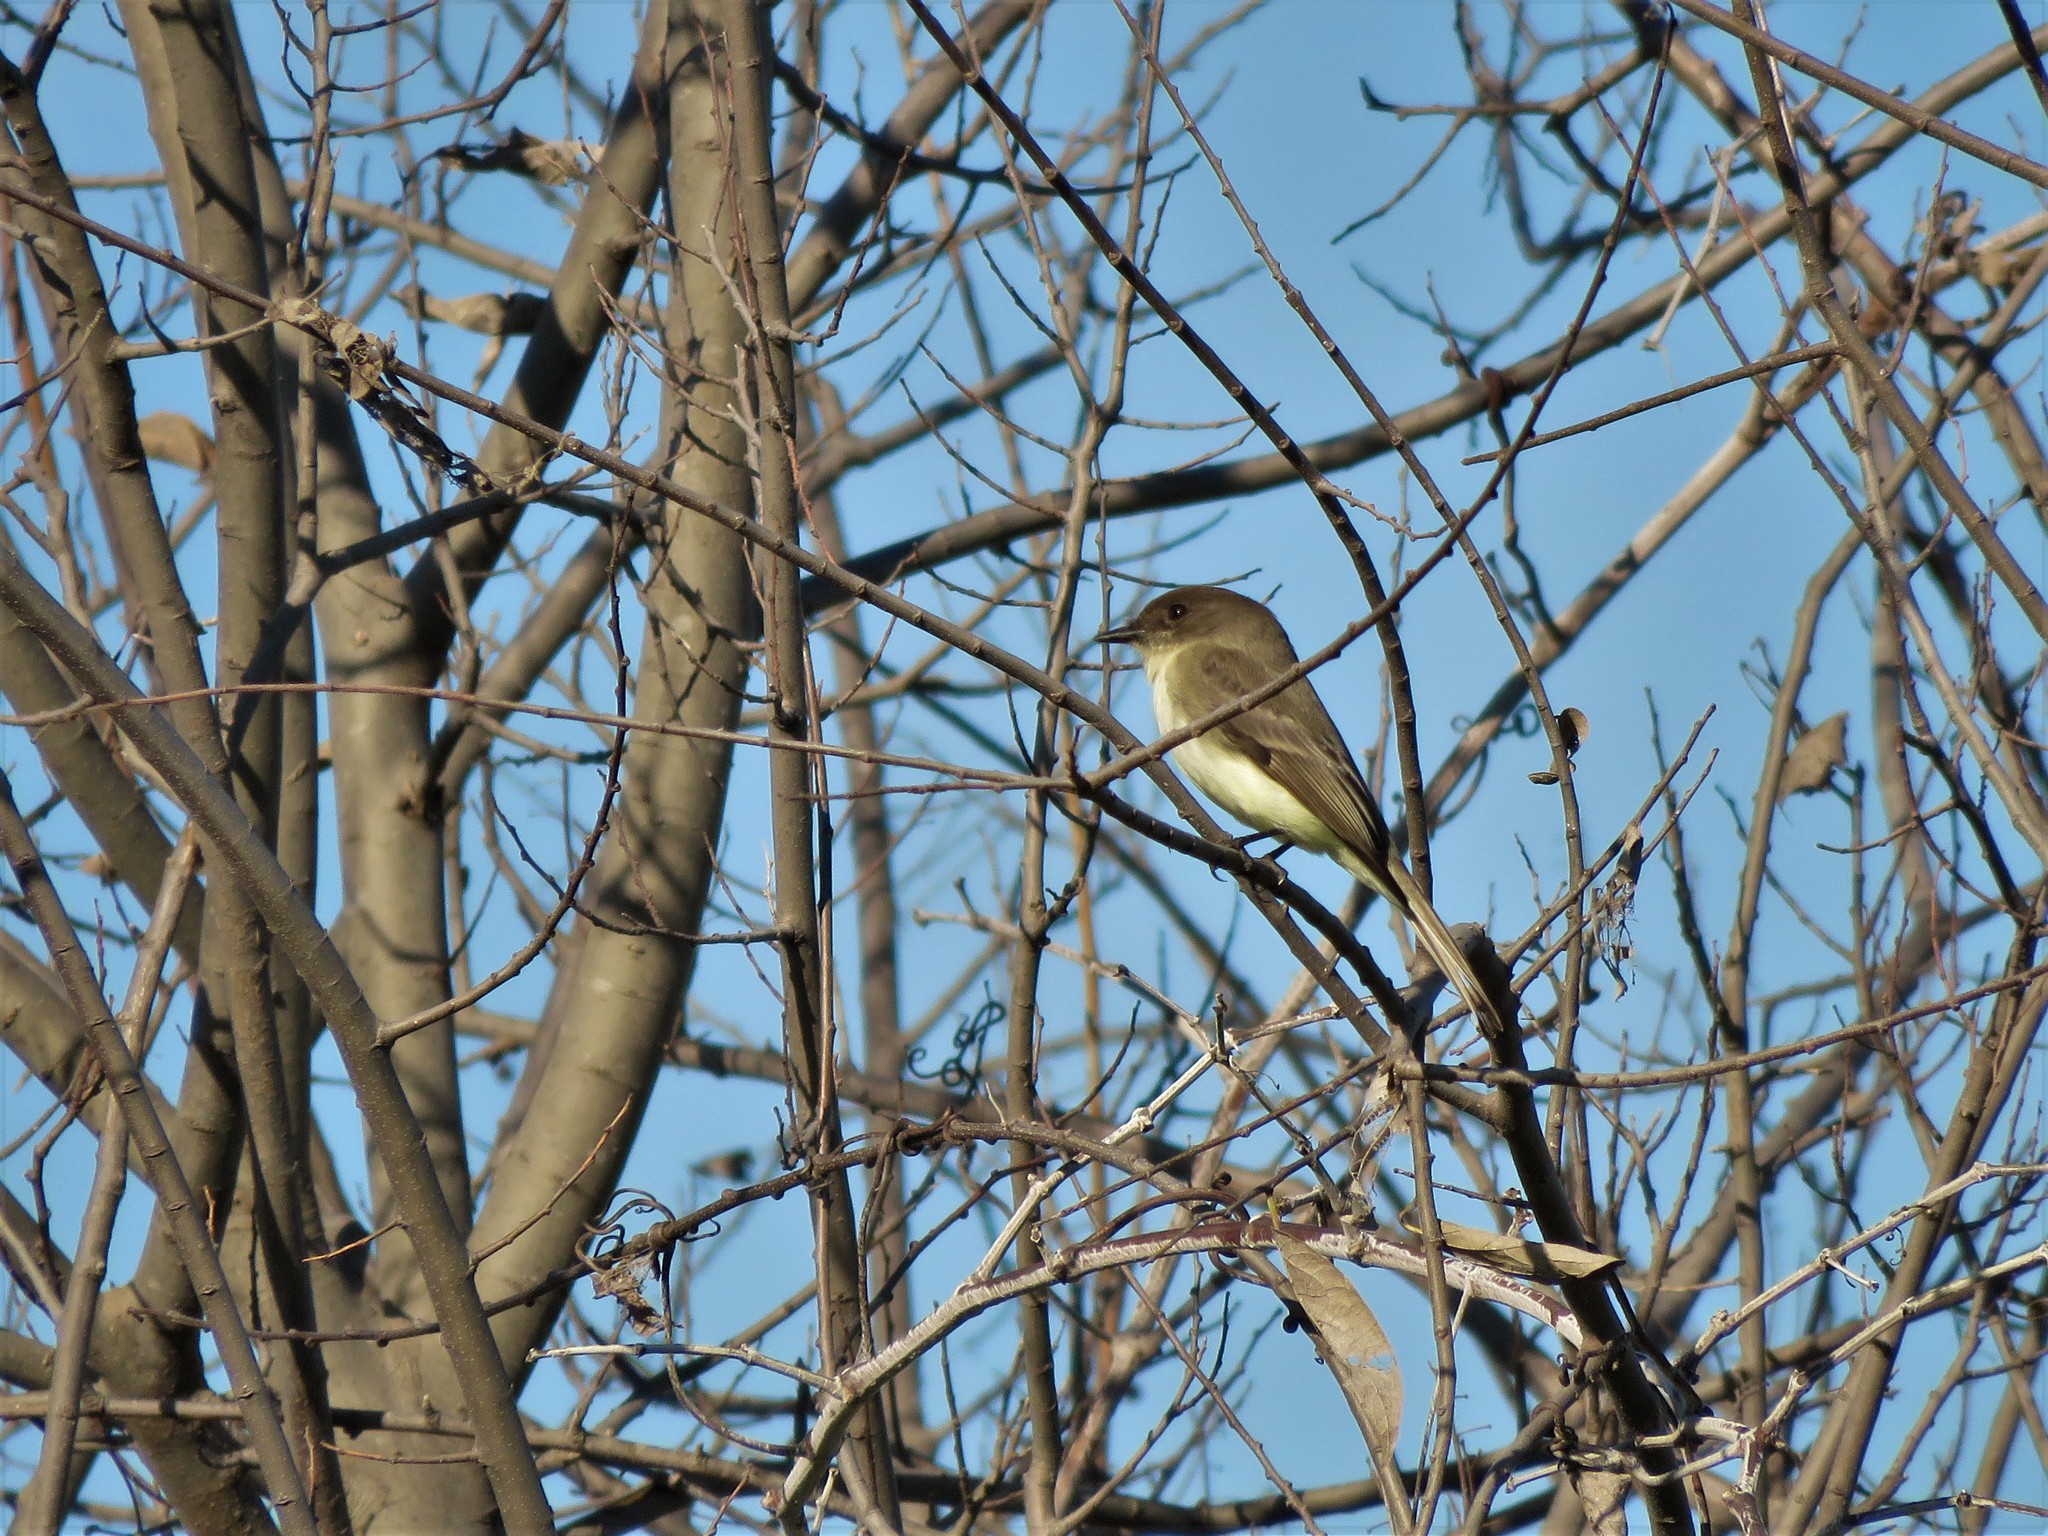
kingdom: Animalia
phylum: Chordata
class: Aves
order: Passeriformes
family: Tyrannidae
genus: Sayornis
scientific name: Sayornis phoebe
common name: Eastern phoebe
